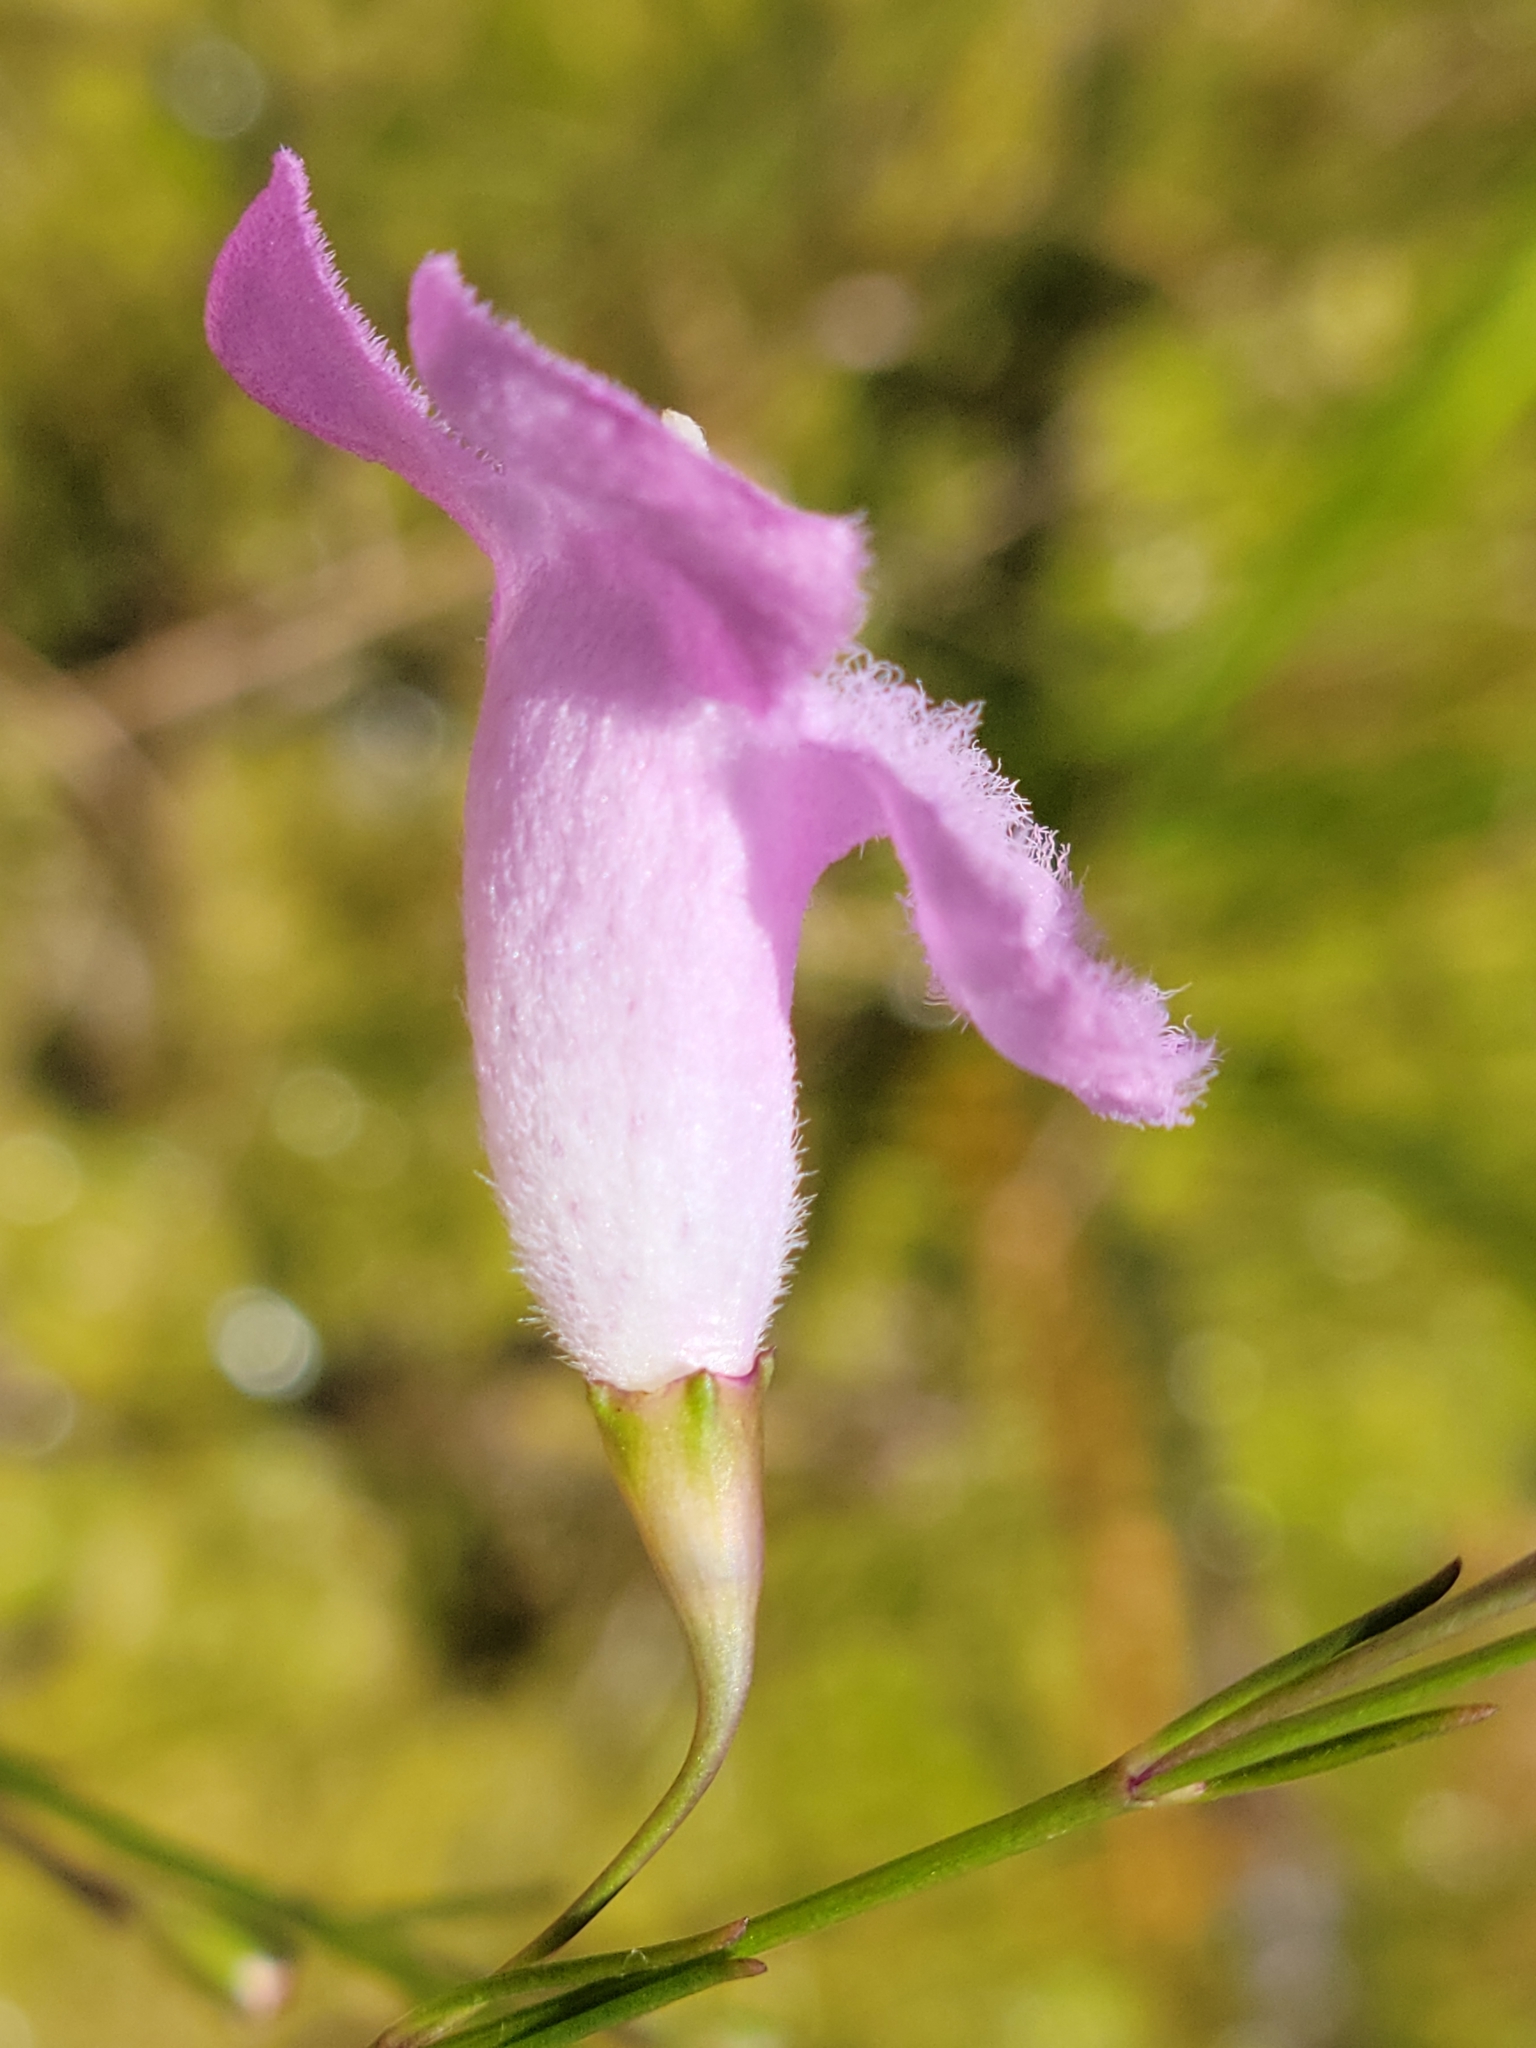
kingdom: Plantae
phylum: Tracheophyta
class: Magnoliopsida
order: Lamiales
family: Orobanchaceae
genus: Agalinis
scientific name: Agalinis linifolia
